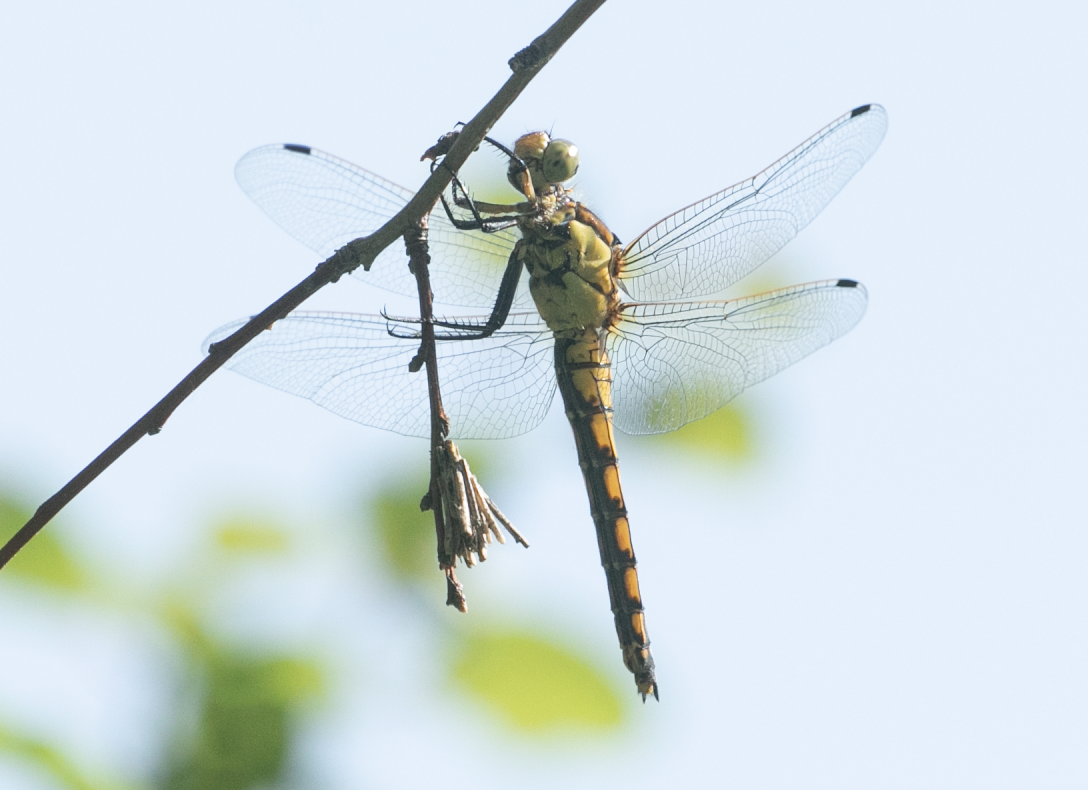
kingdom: Animalia
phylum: Arthropoda
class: Insecta
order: Odonata
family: Libellulidae
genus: Orthetrum
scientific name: Orthetrum cancellatum
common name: Black-tailed skimmer
